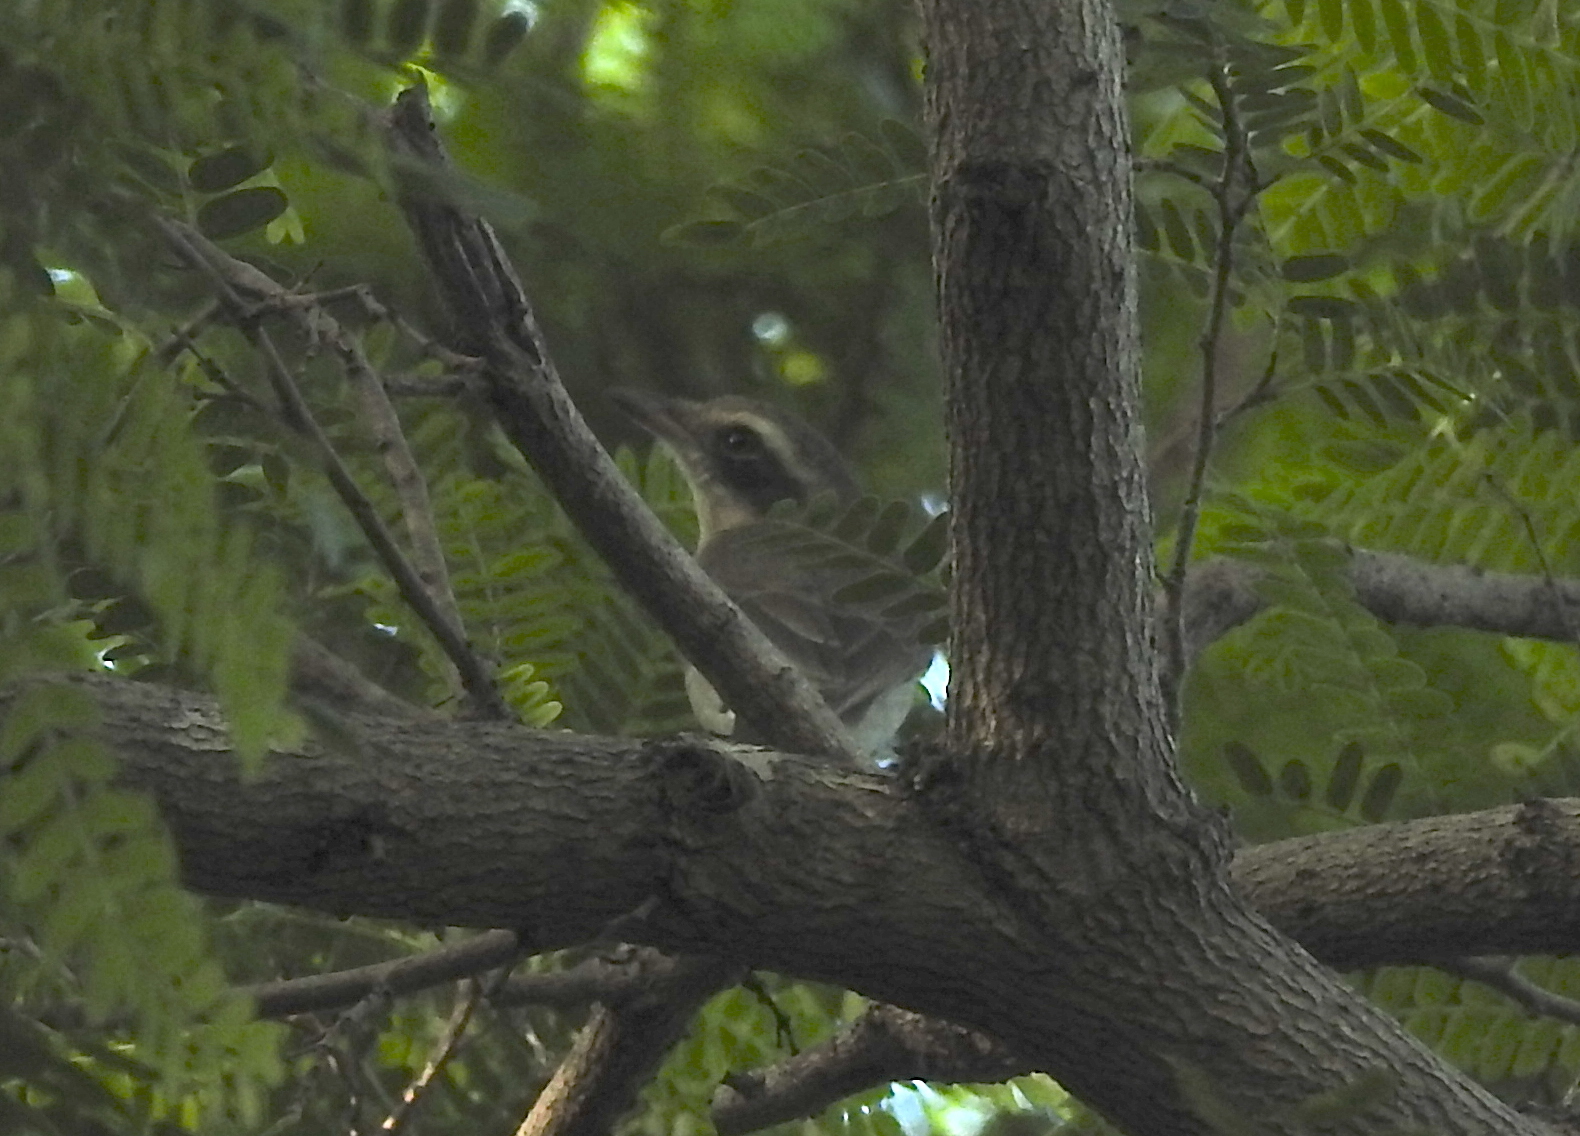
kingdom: Animalia
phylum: Chordata
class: Aves
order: Passeriformes
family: Tephrodornithidae
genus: Tephrodornis
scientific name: Tephrodornis pondicerianus
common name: Common woodshrike
